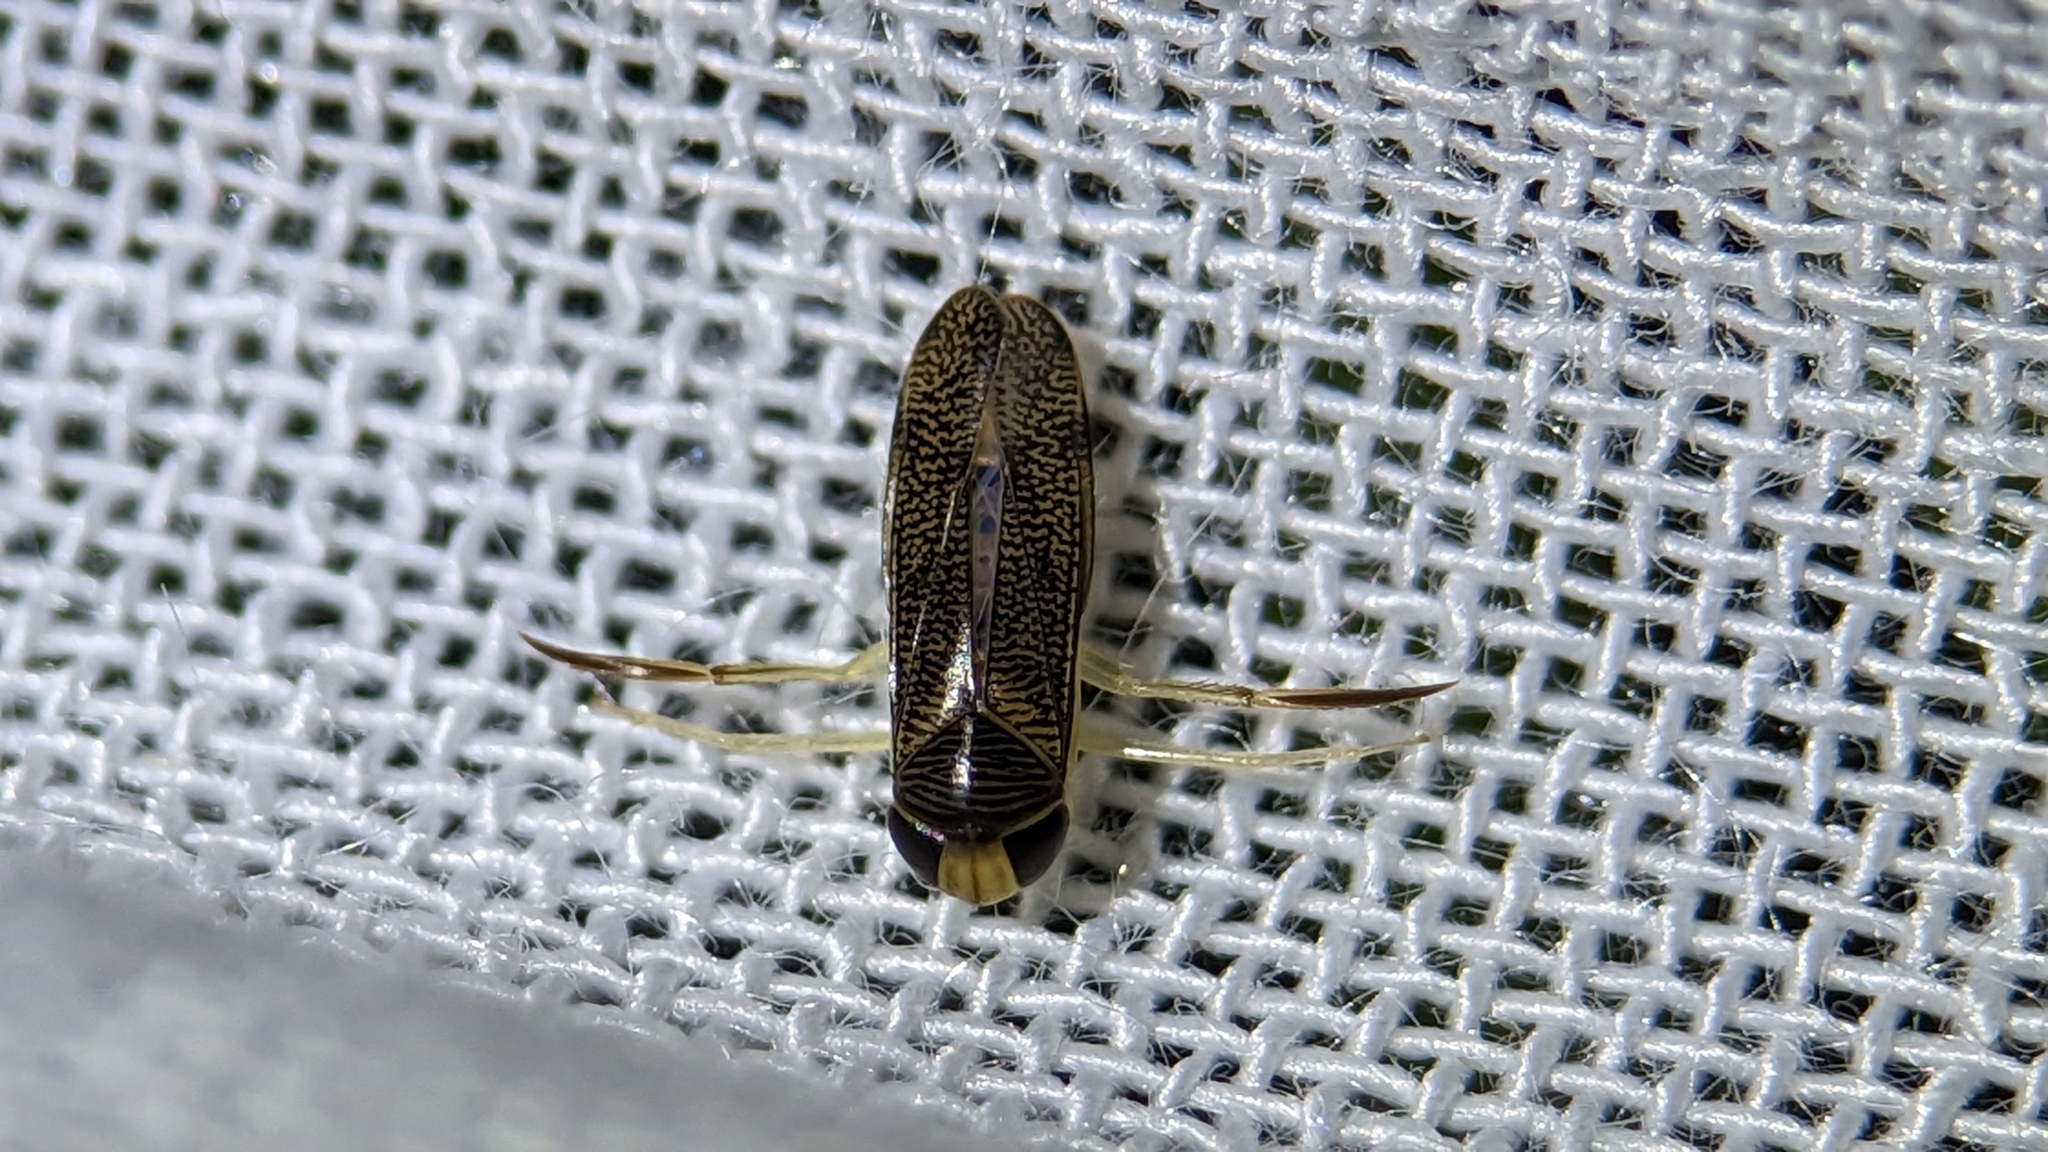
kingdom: Animalia
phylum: Arthropoda
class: Insecta
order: Hemiptera
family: Corixidae
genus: Trichocorixa
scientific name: Trichocorixa
